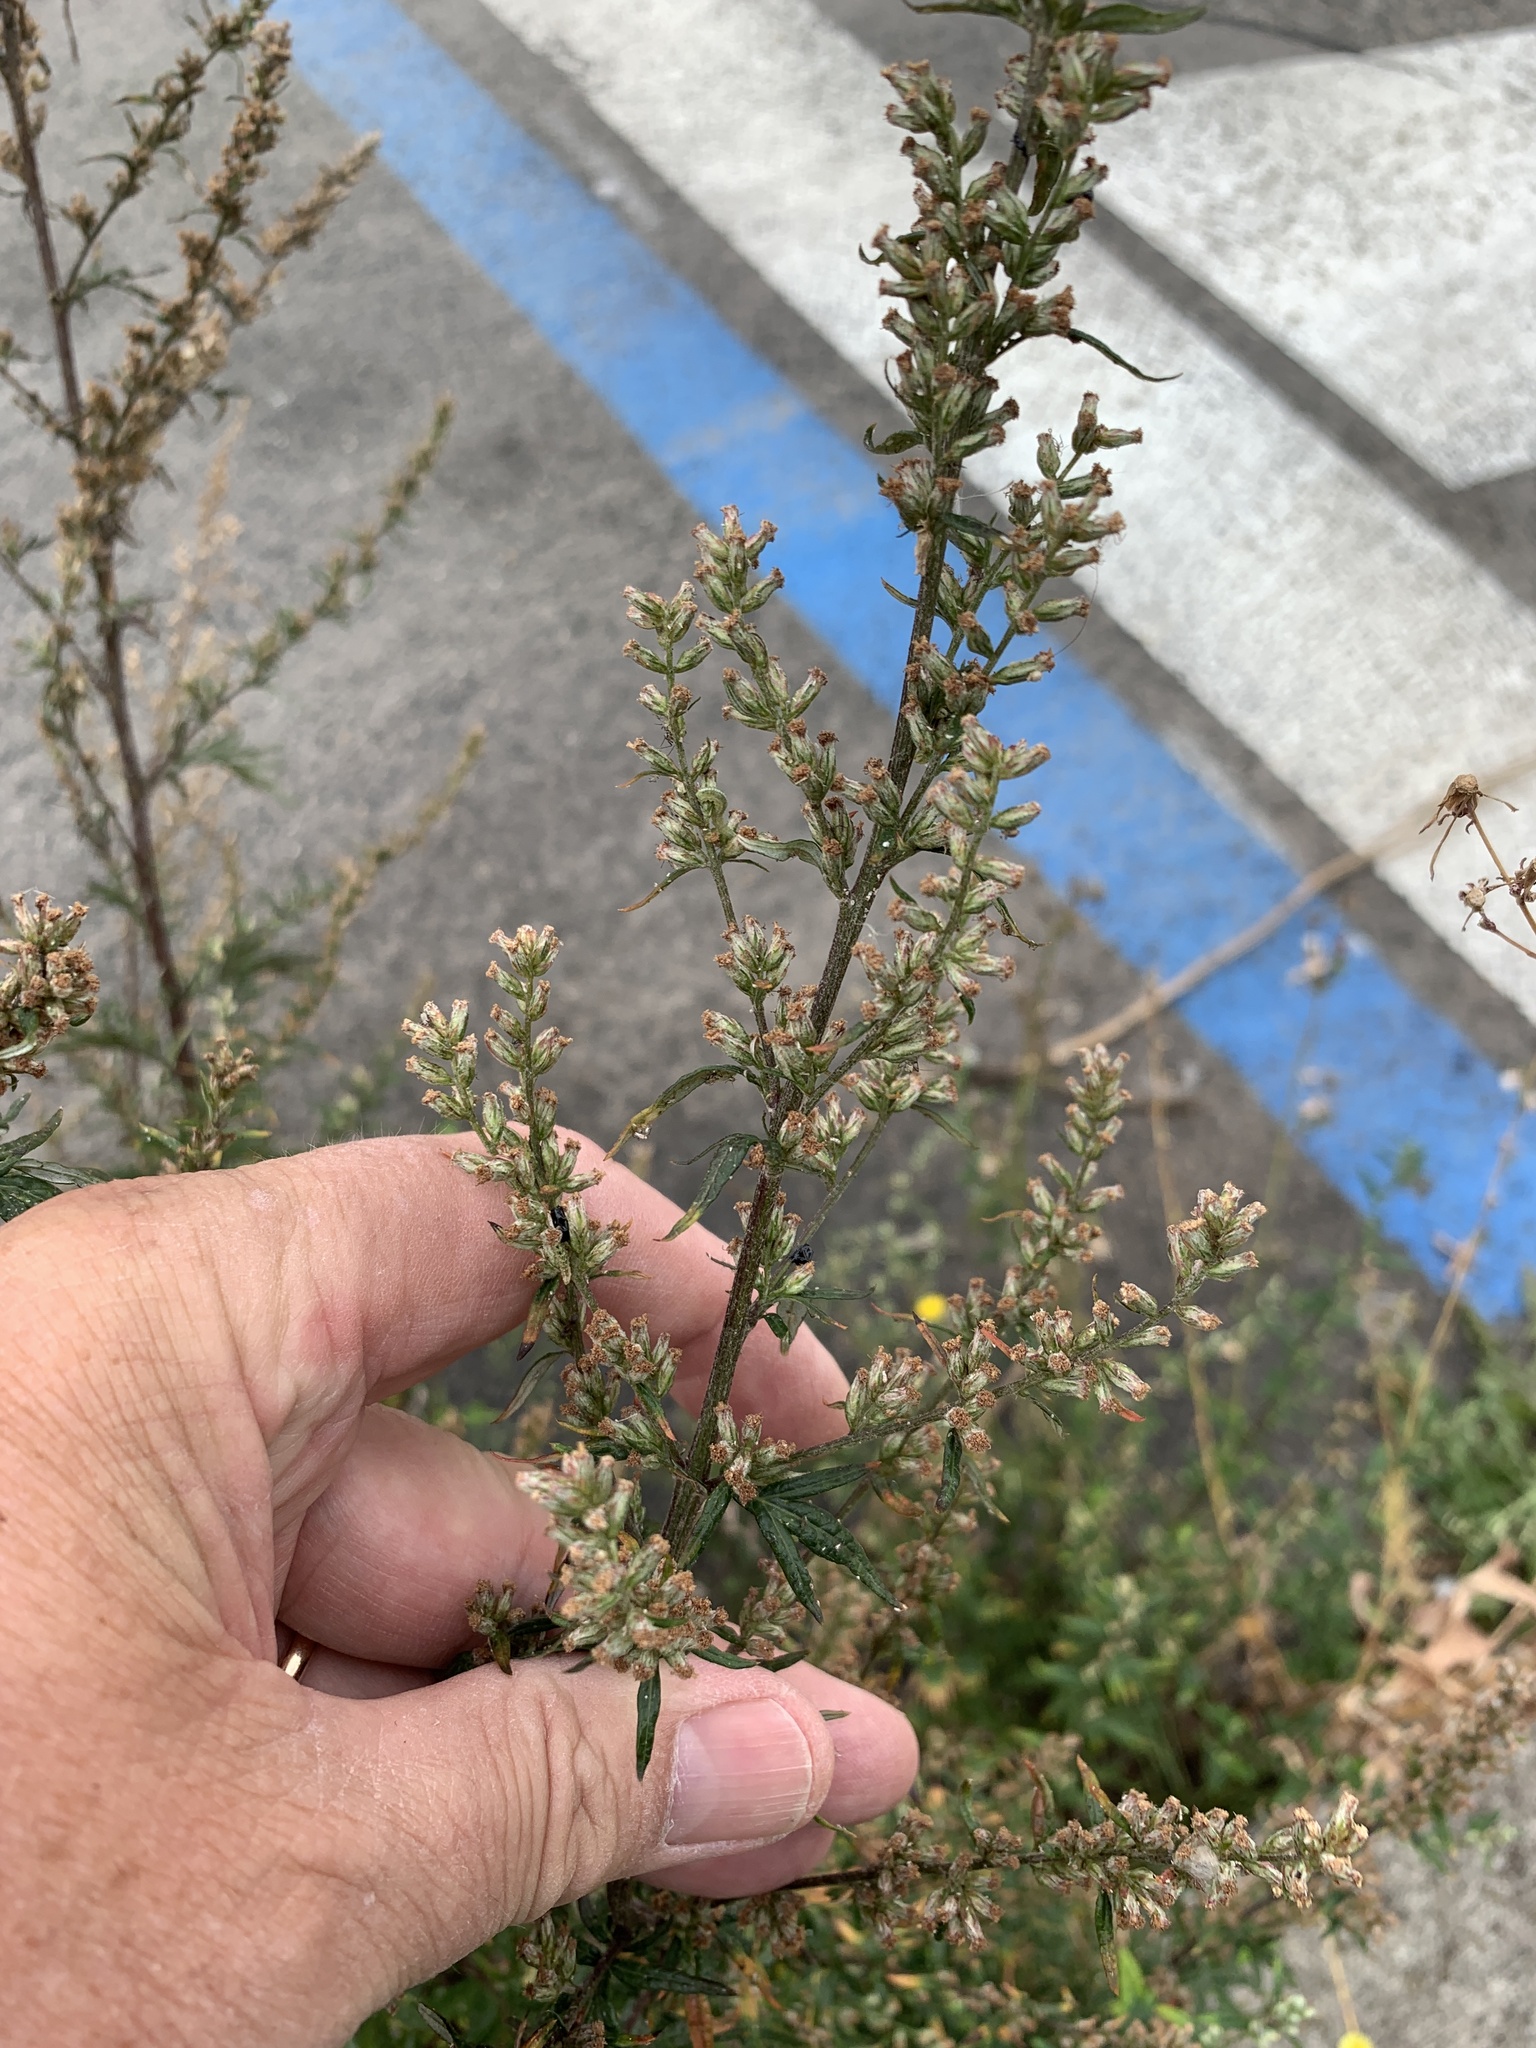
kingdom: Plantae
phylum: Tracheophyta
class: Magnoliopsida
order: Asterales
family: Asteraceae
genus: Artemisia
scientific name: Artemisia vulgaris
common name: Mugwort
